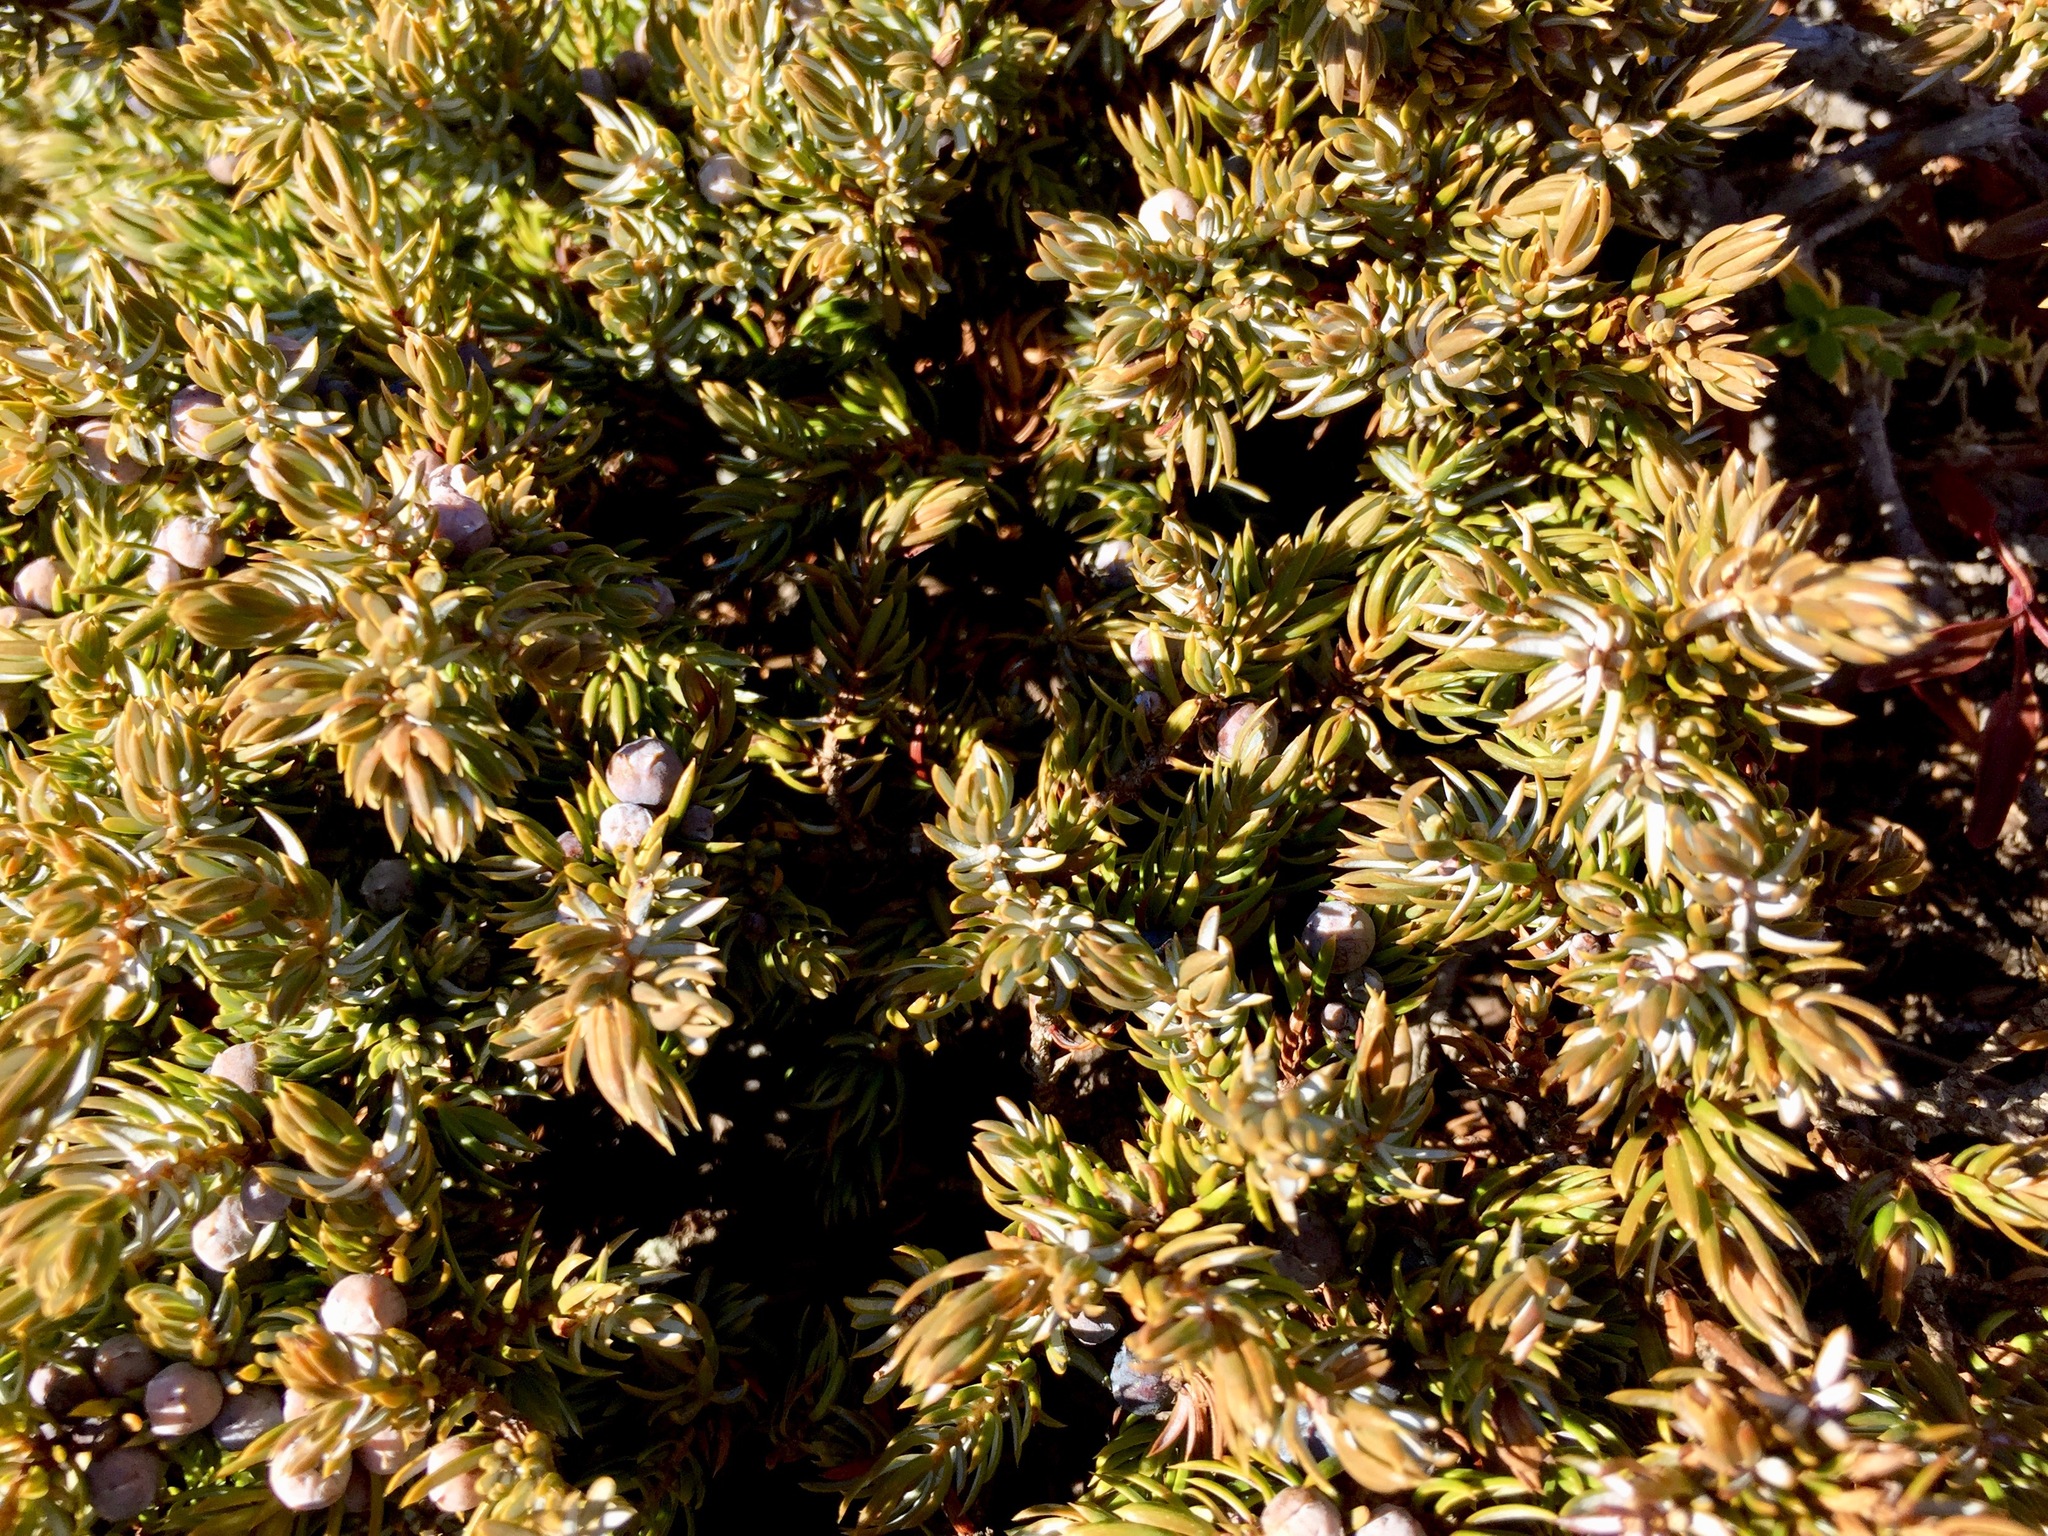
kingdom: Plantae
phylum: Tracheophyta
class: Pinopsida
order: Pinales
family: Cupressaceae
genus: Juniperus
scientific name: Juniperus communis
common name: Common juniper
